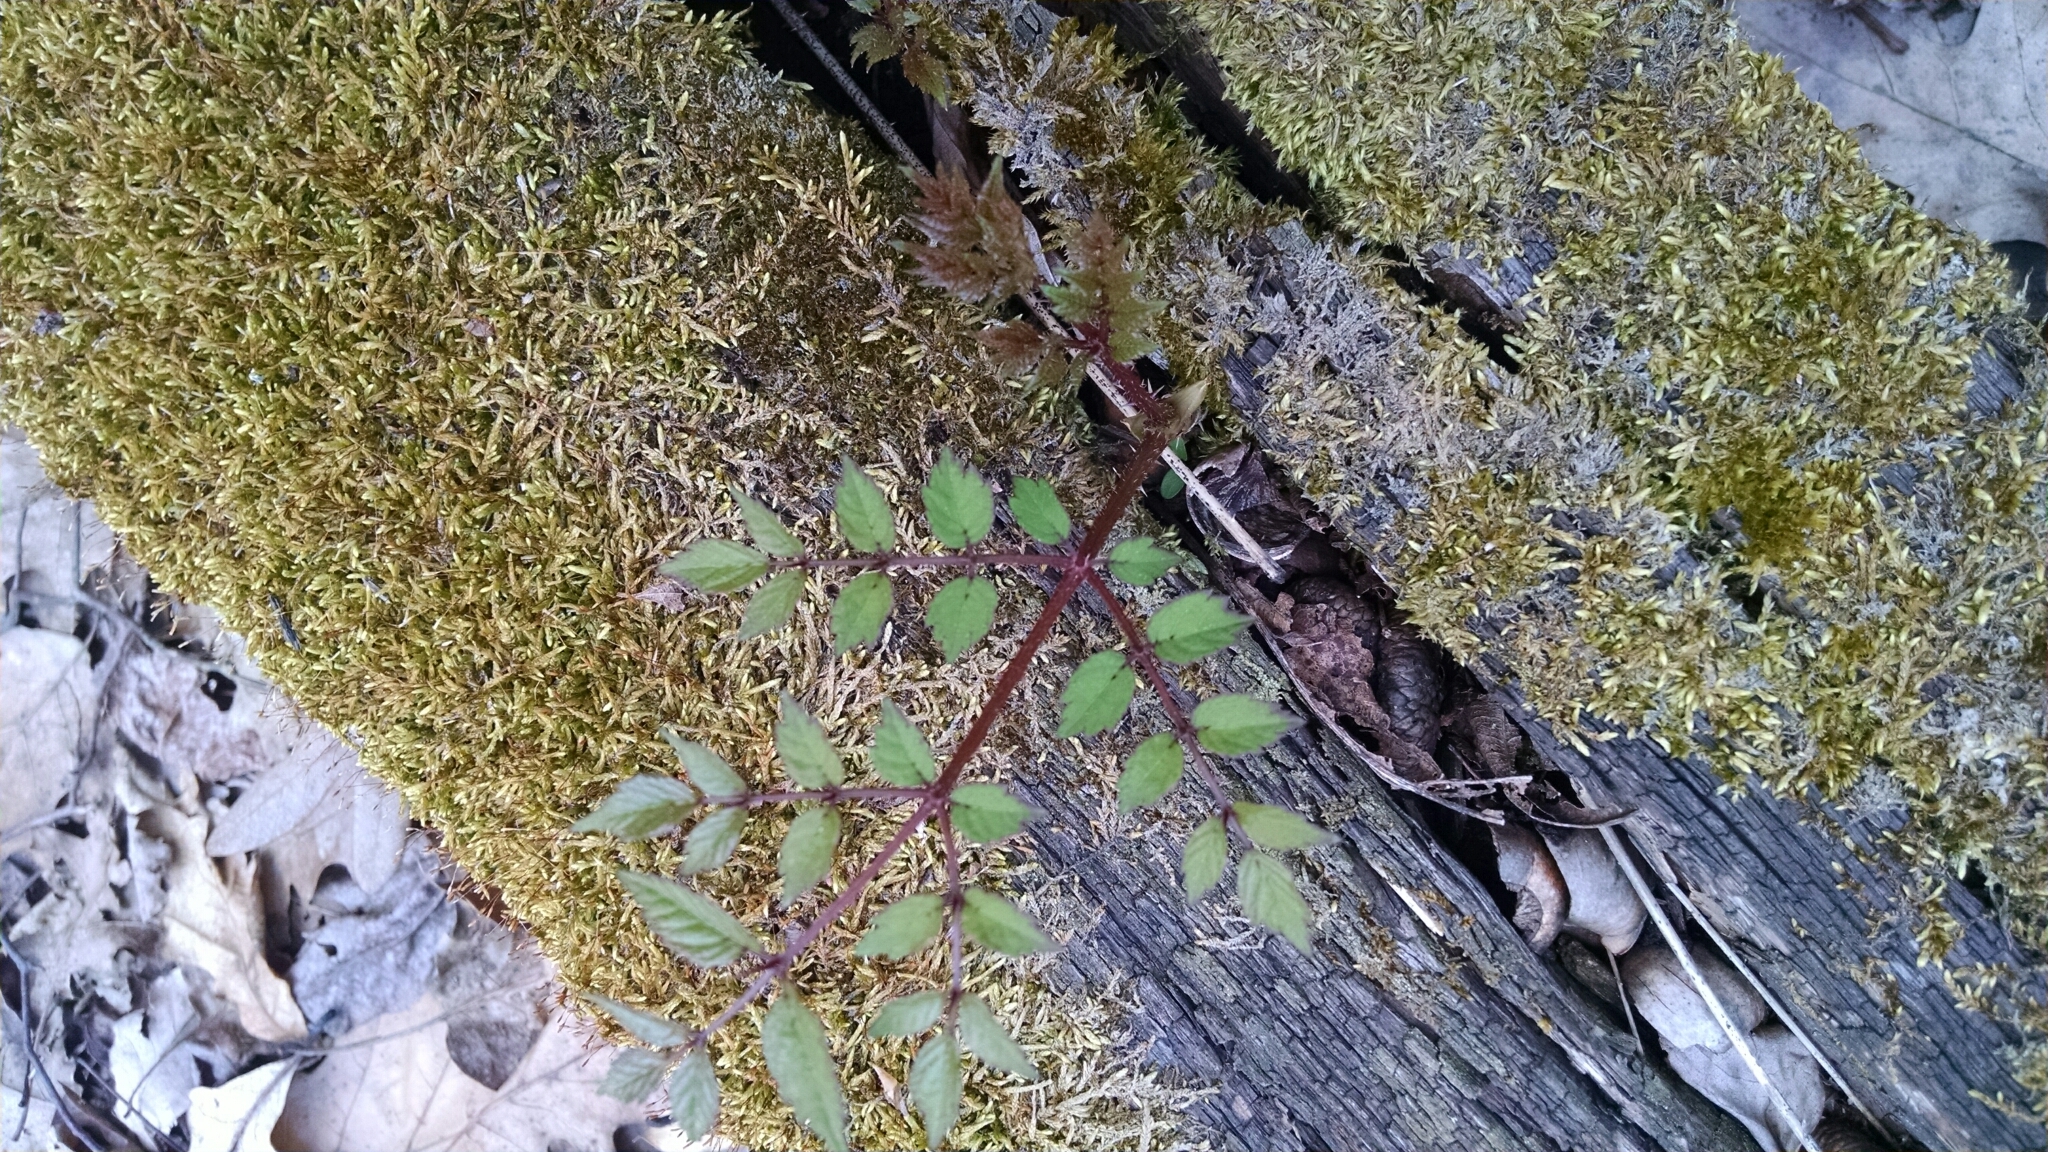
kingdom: Plantae
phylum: Tracheophyta
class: Magnoliopsida
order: Apiales
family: Araliaceae
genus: Aralia
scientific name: Aralia elata
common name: Japanese angelica-tree
